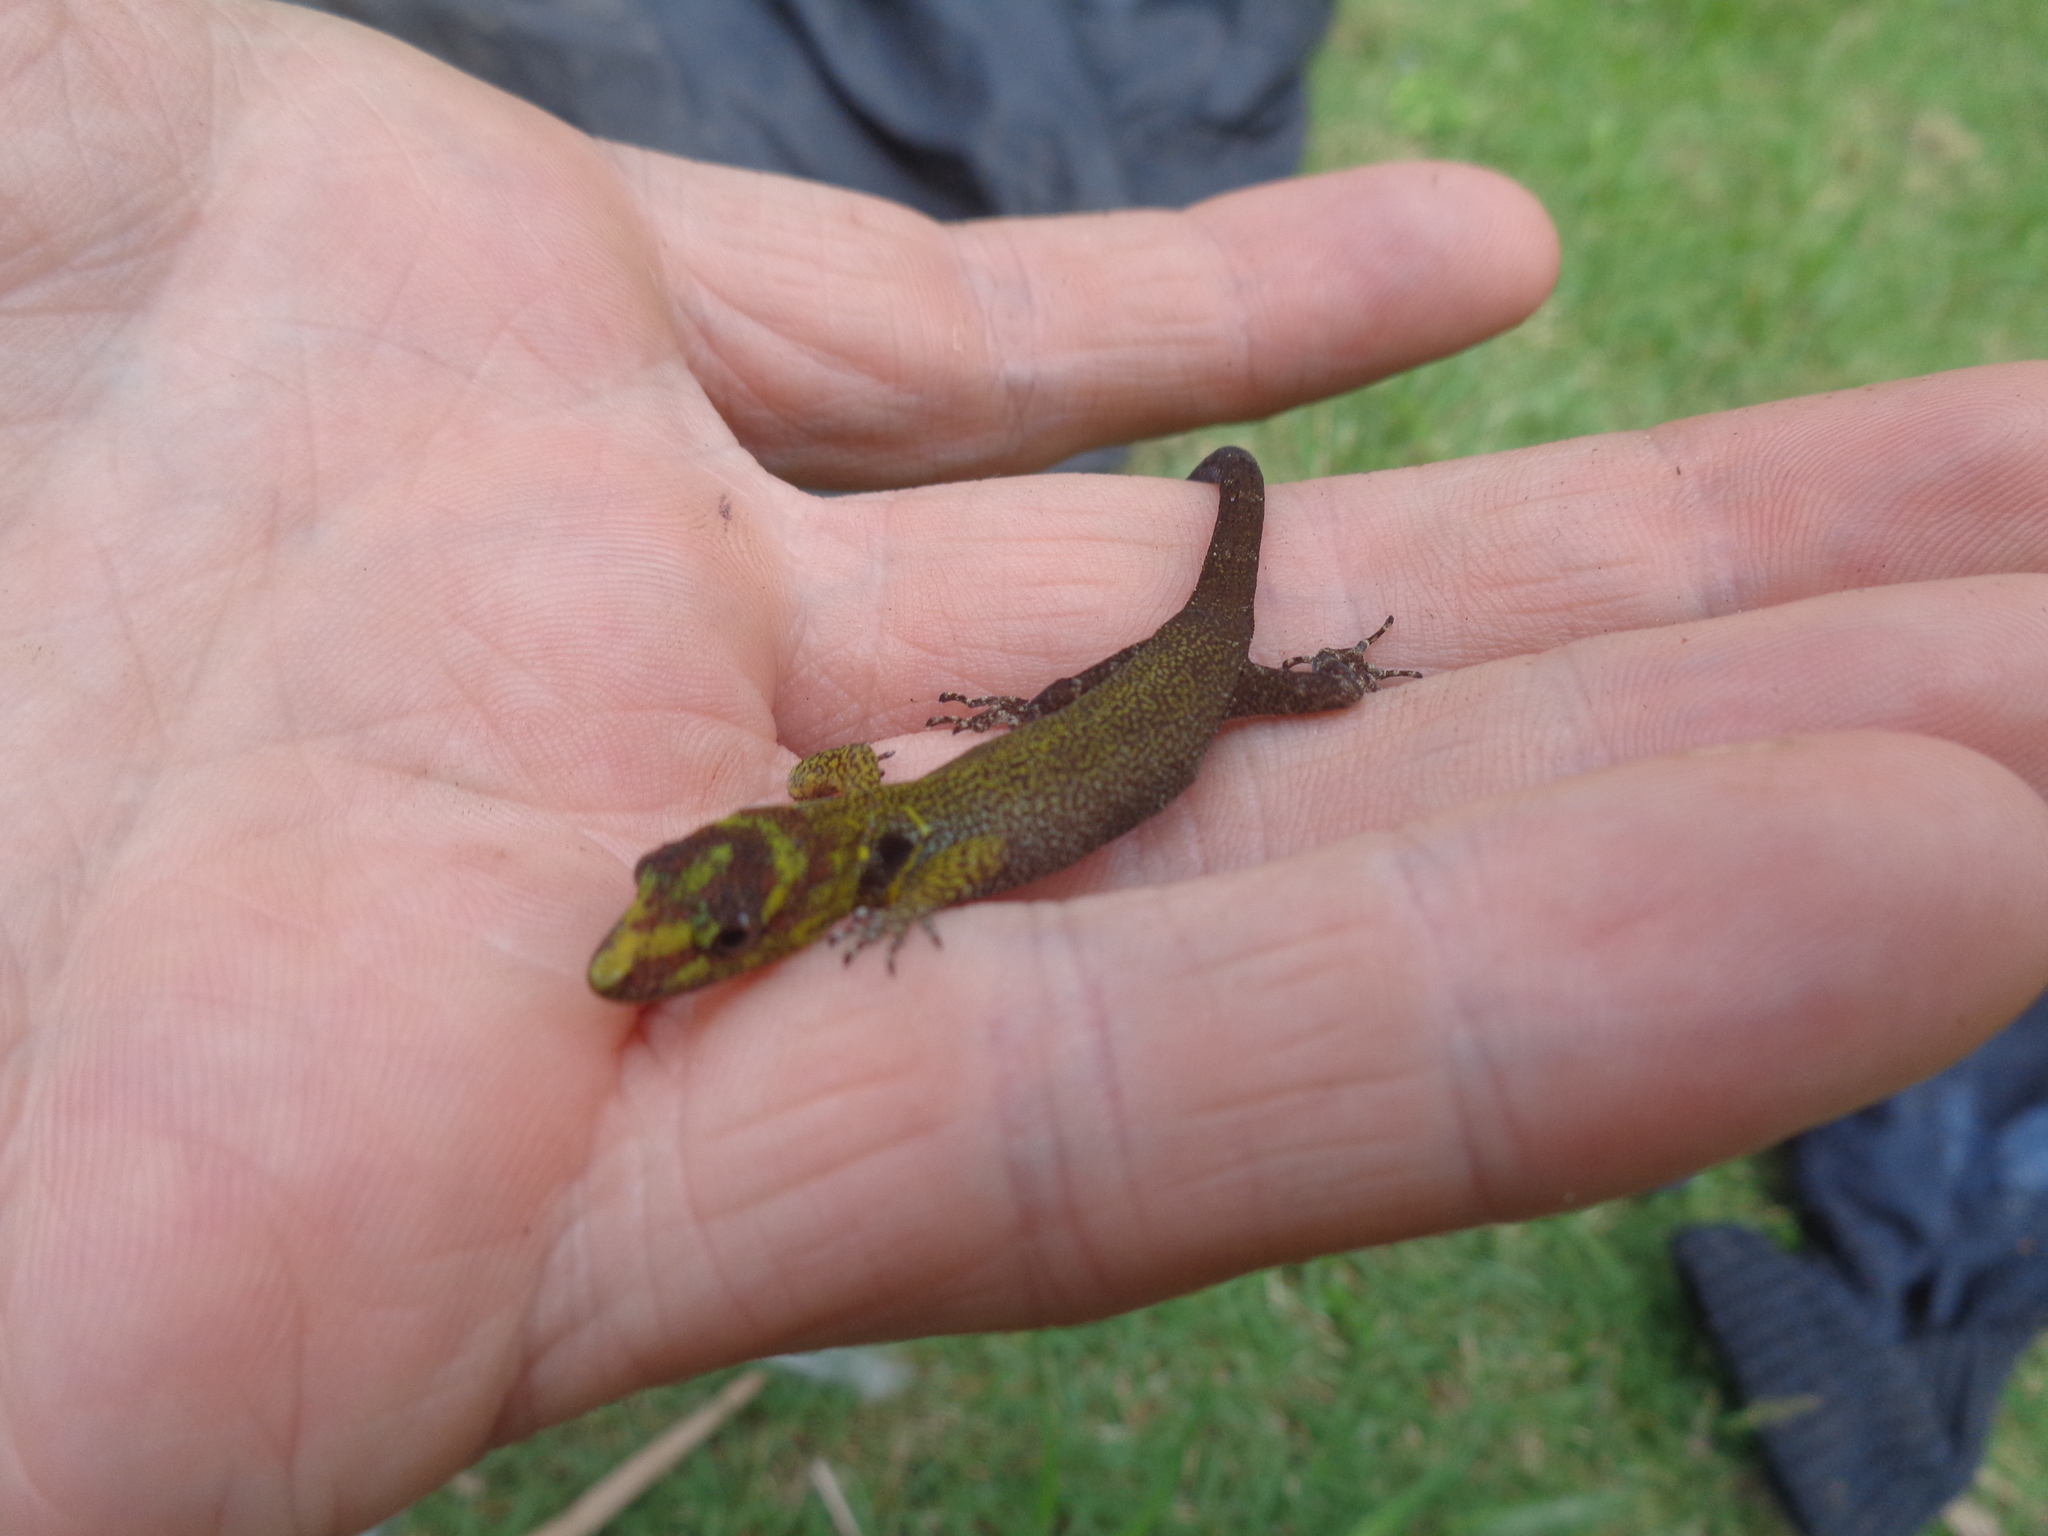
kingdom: Animalia
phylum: Chordata
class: Squamata
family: Sphaerodactylidae
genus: Gonatodes
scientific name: Gonatodes humeralis
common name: South american clawed gecko
